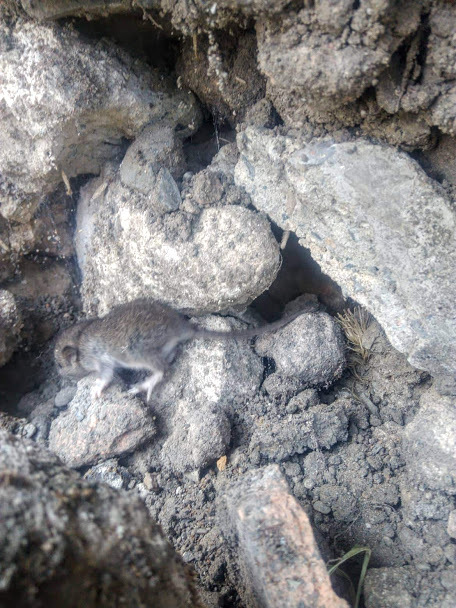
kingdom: Animalia
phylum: Chordata
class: Mammalia
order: Rodentia
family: Muridae
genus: Rattus
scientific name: Rattus rattus
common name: Black rat
